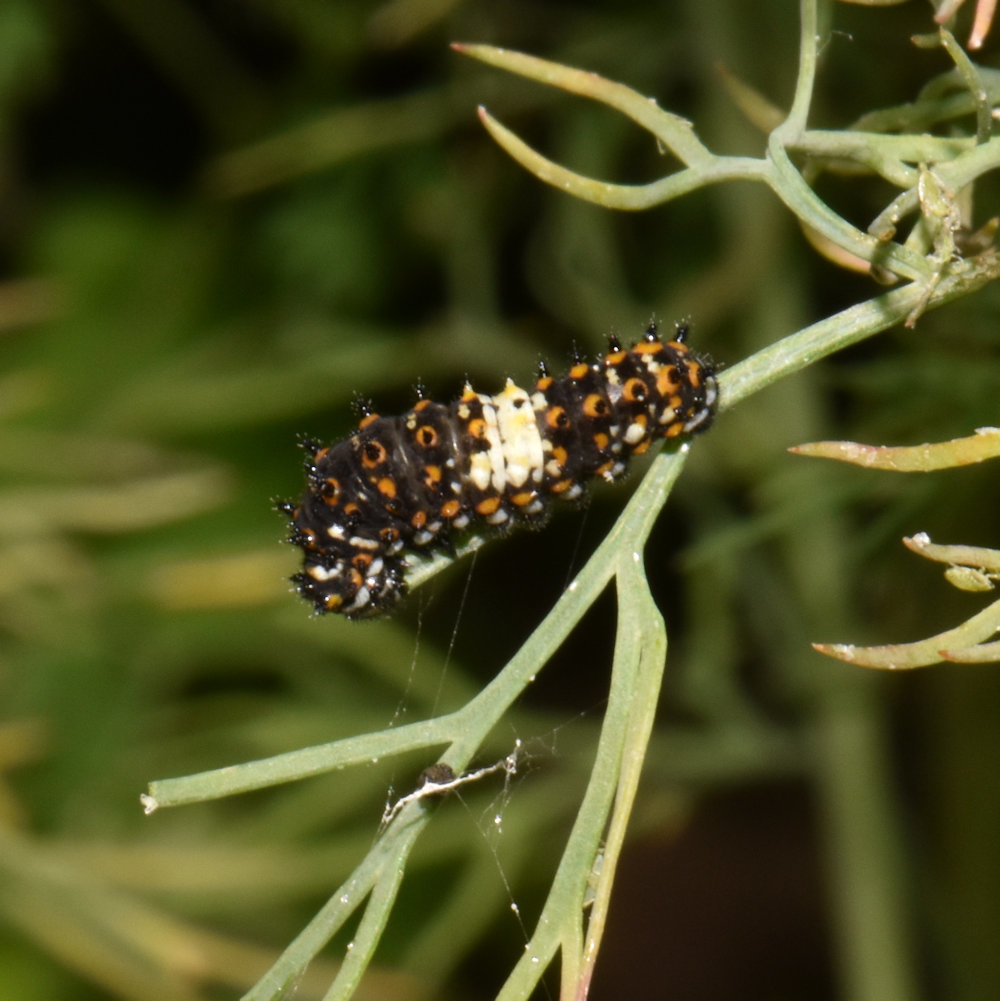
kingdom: Animalia
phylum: Arthropoda
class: Insecta
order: Lepidoptera
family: Papilionidae
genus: Papilio
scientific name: Papilio polyxenes
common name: Black swallowtail
